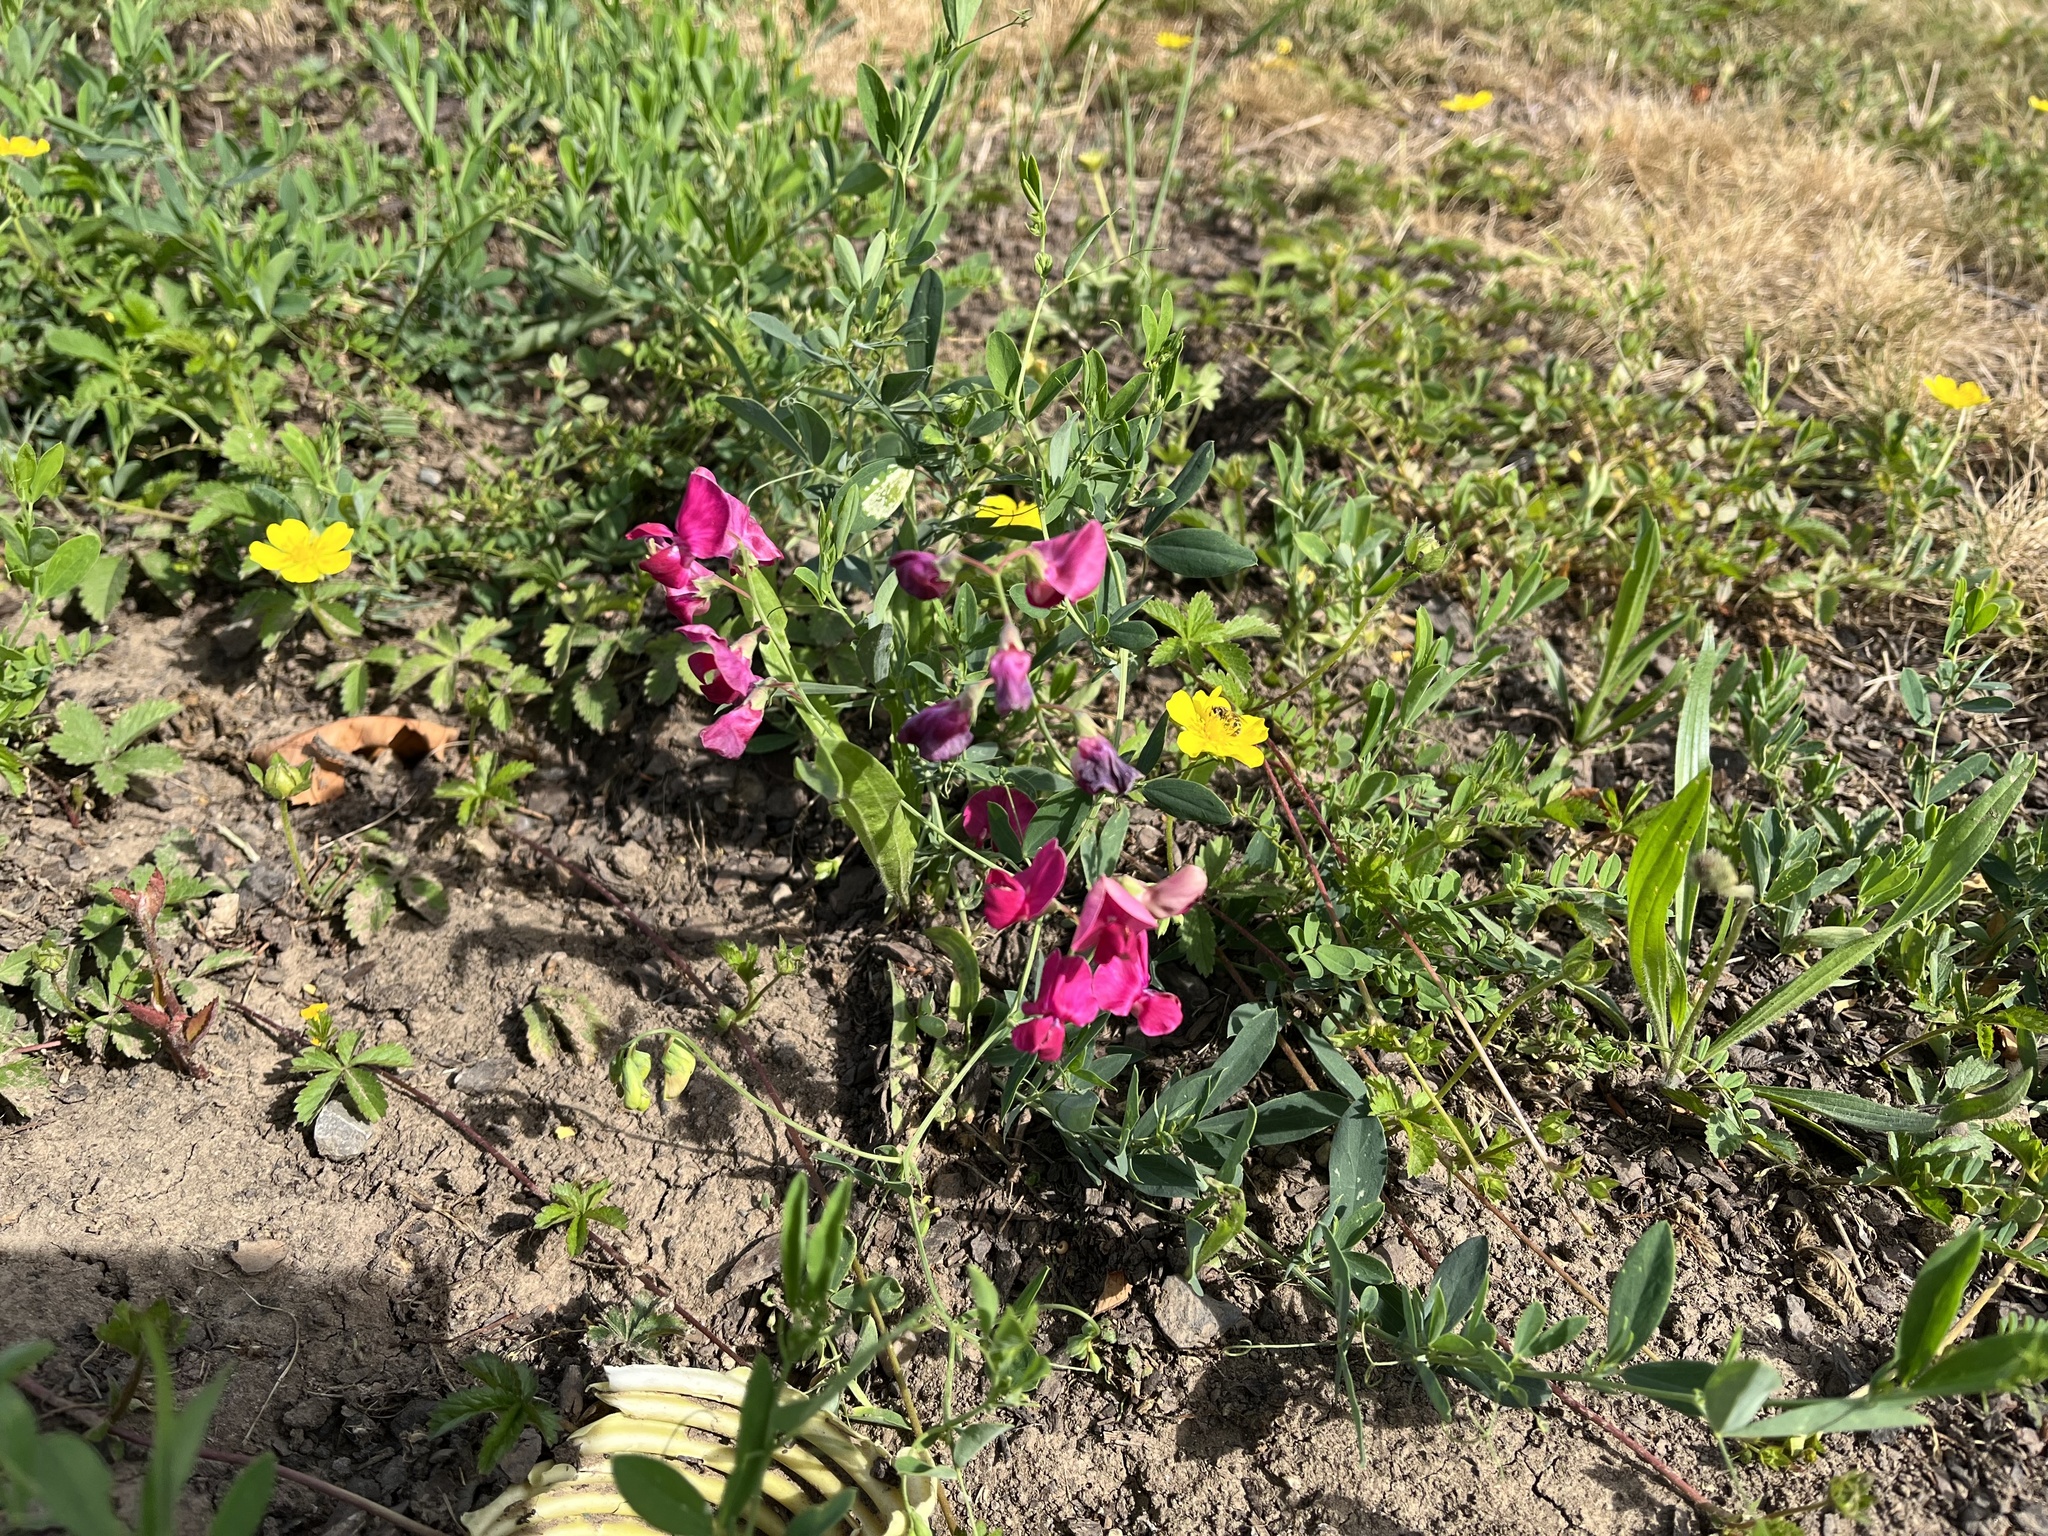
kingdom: Plantae
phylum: Tracheophyta
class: Magnoliopsida
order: Fabales
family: Fabaceae
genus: Lathyrus
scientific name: Lathyrus tuberosus
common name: Tuberous pea
